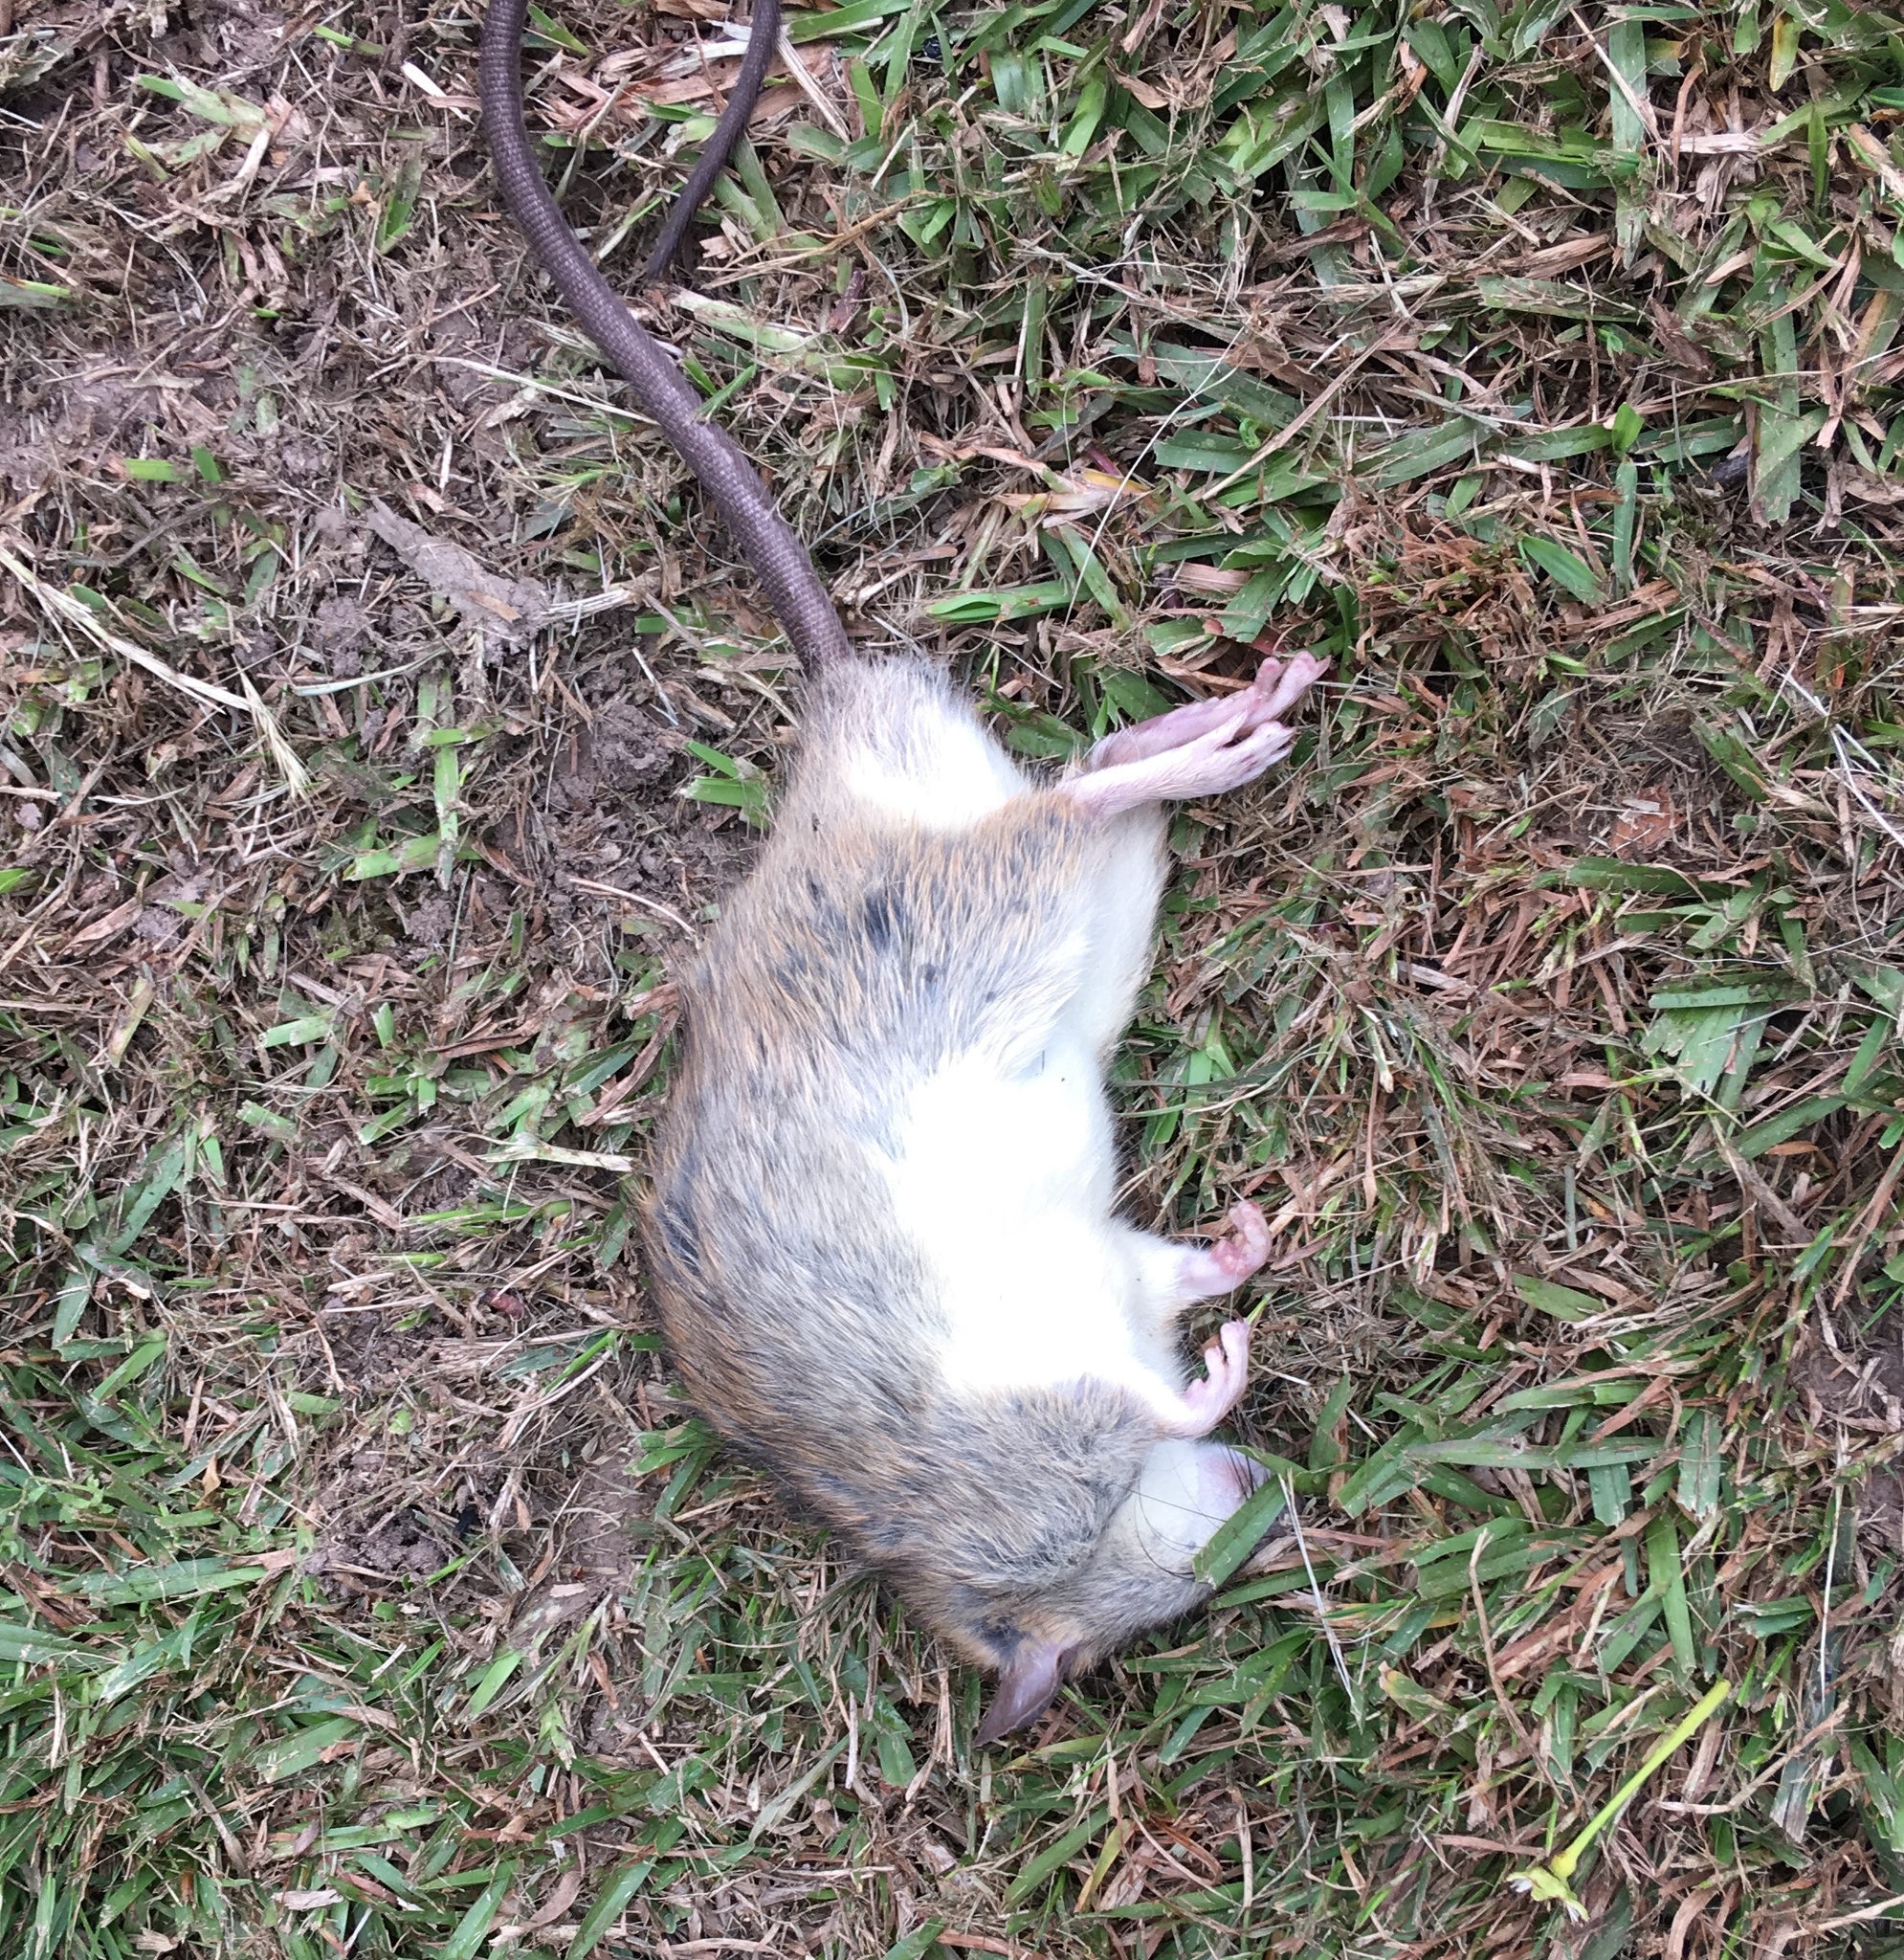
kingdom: Animalia
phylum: Chordata
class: Mammalia
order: Rodentia
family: Muridae
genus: Rattus
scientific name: Rattus rattus
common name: Black rat
